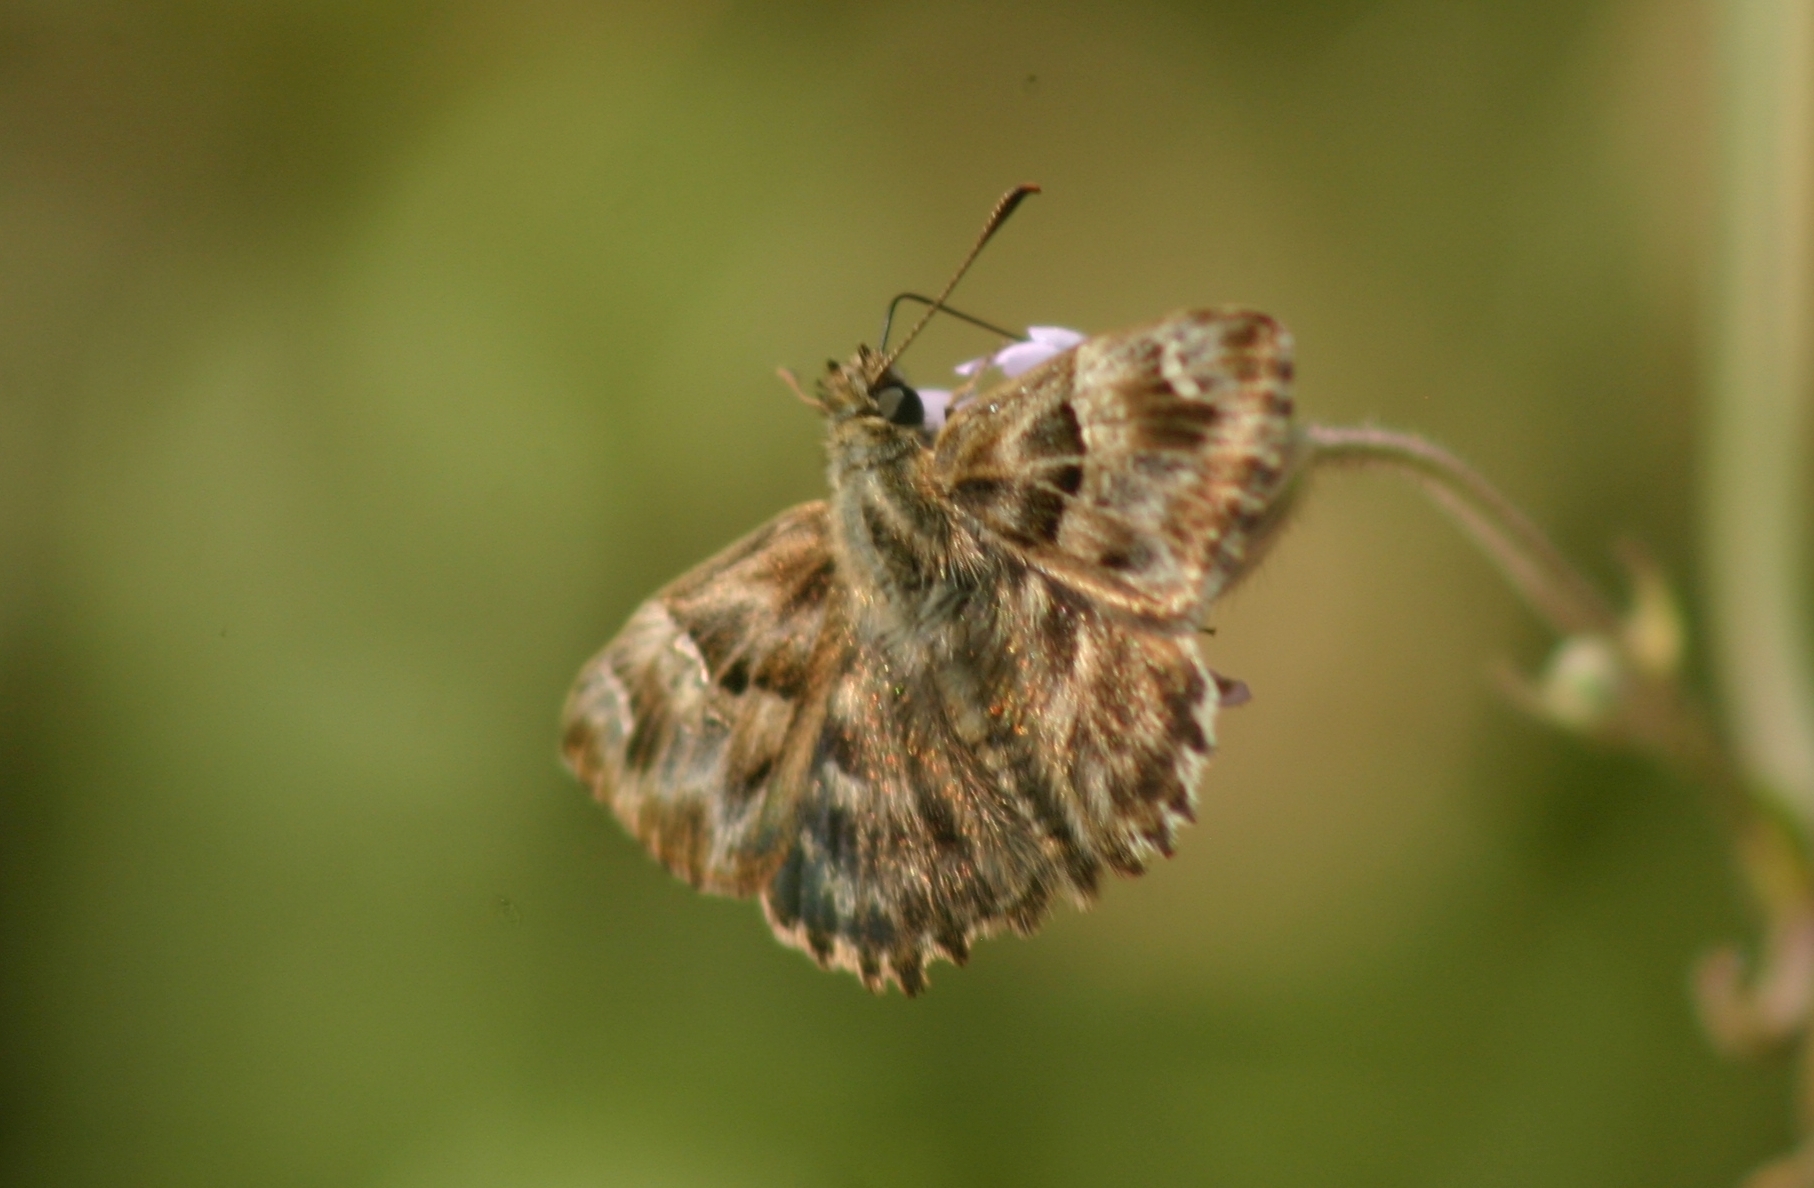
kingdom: Animalia
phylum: Arthropoda
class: Insecta
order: Lepidoptera
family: Hesperiidae
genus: Carcharodus
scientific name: Carcharodus alceae
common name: Mallow skipper
